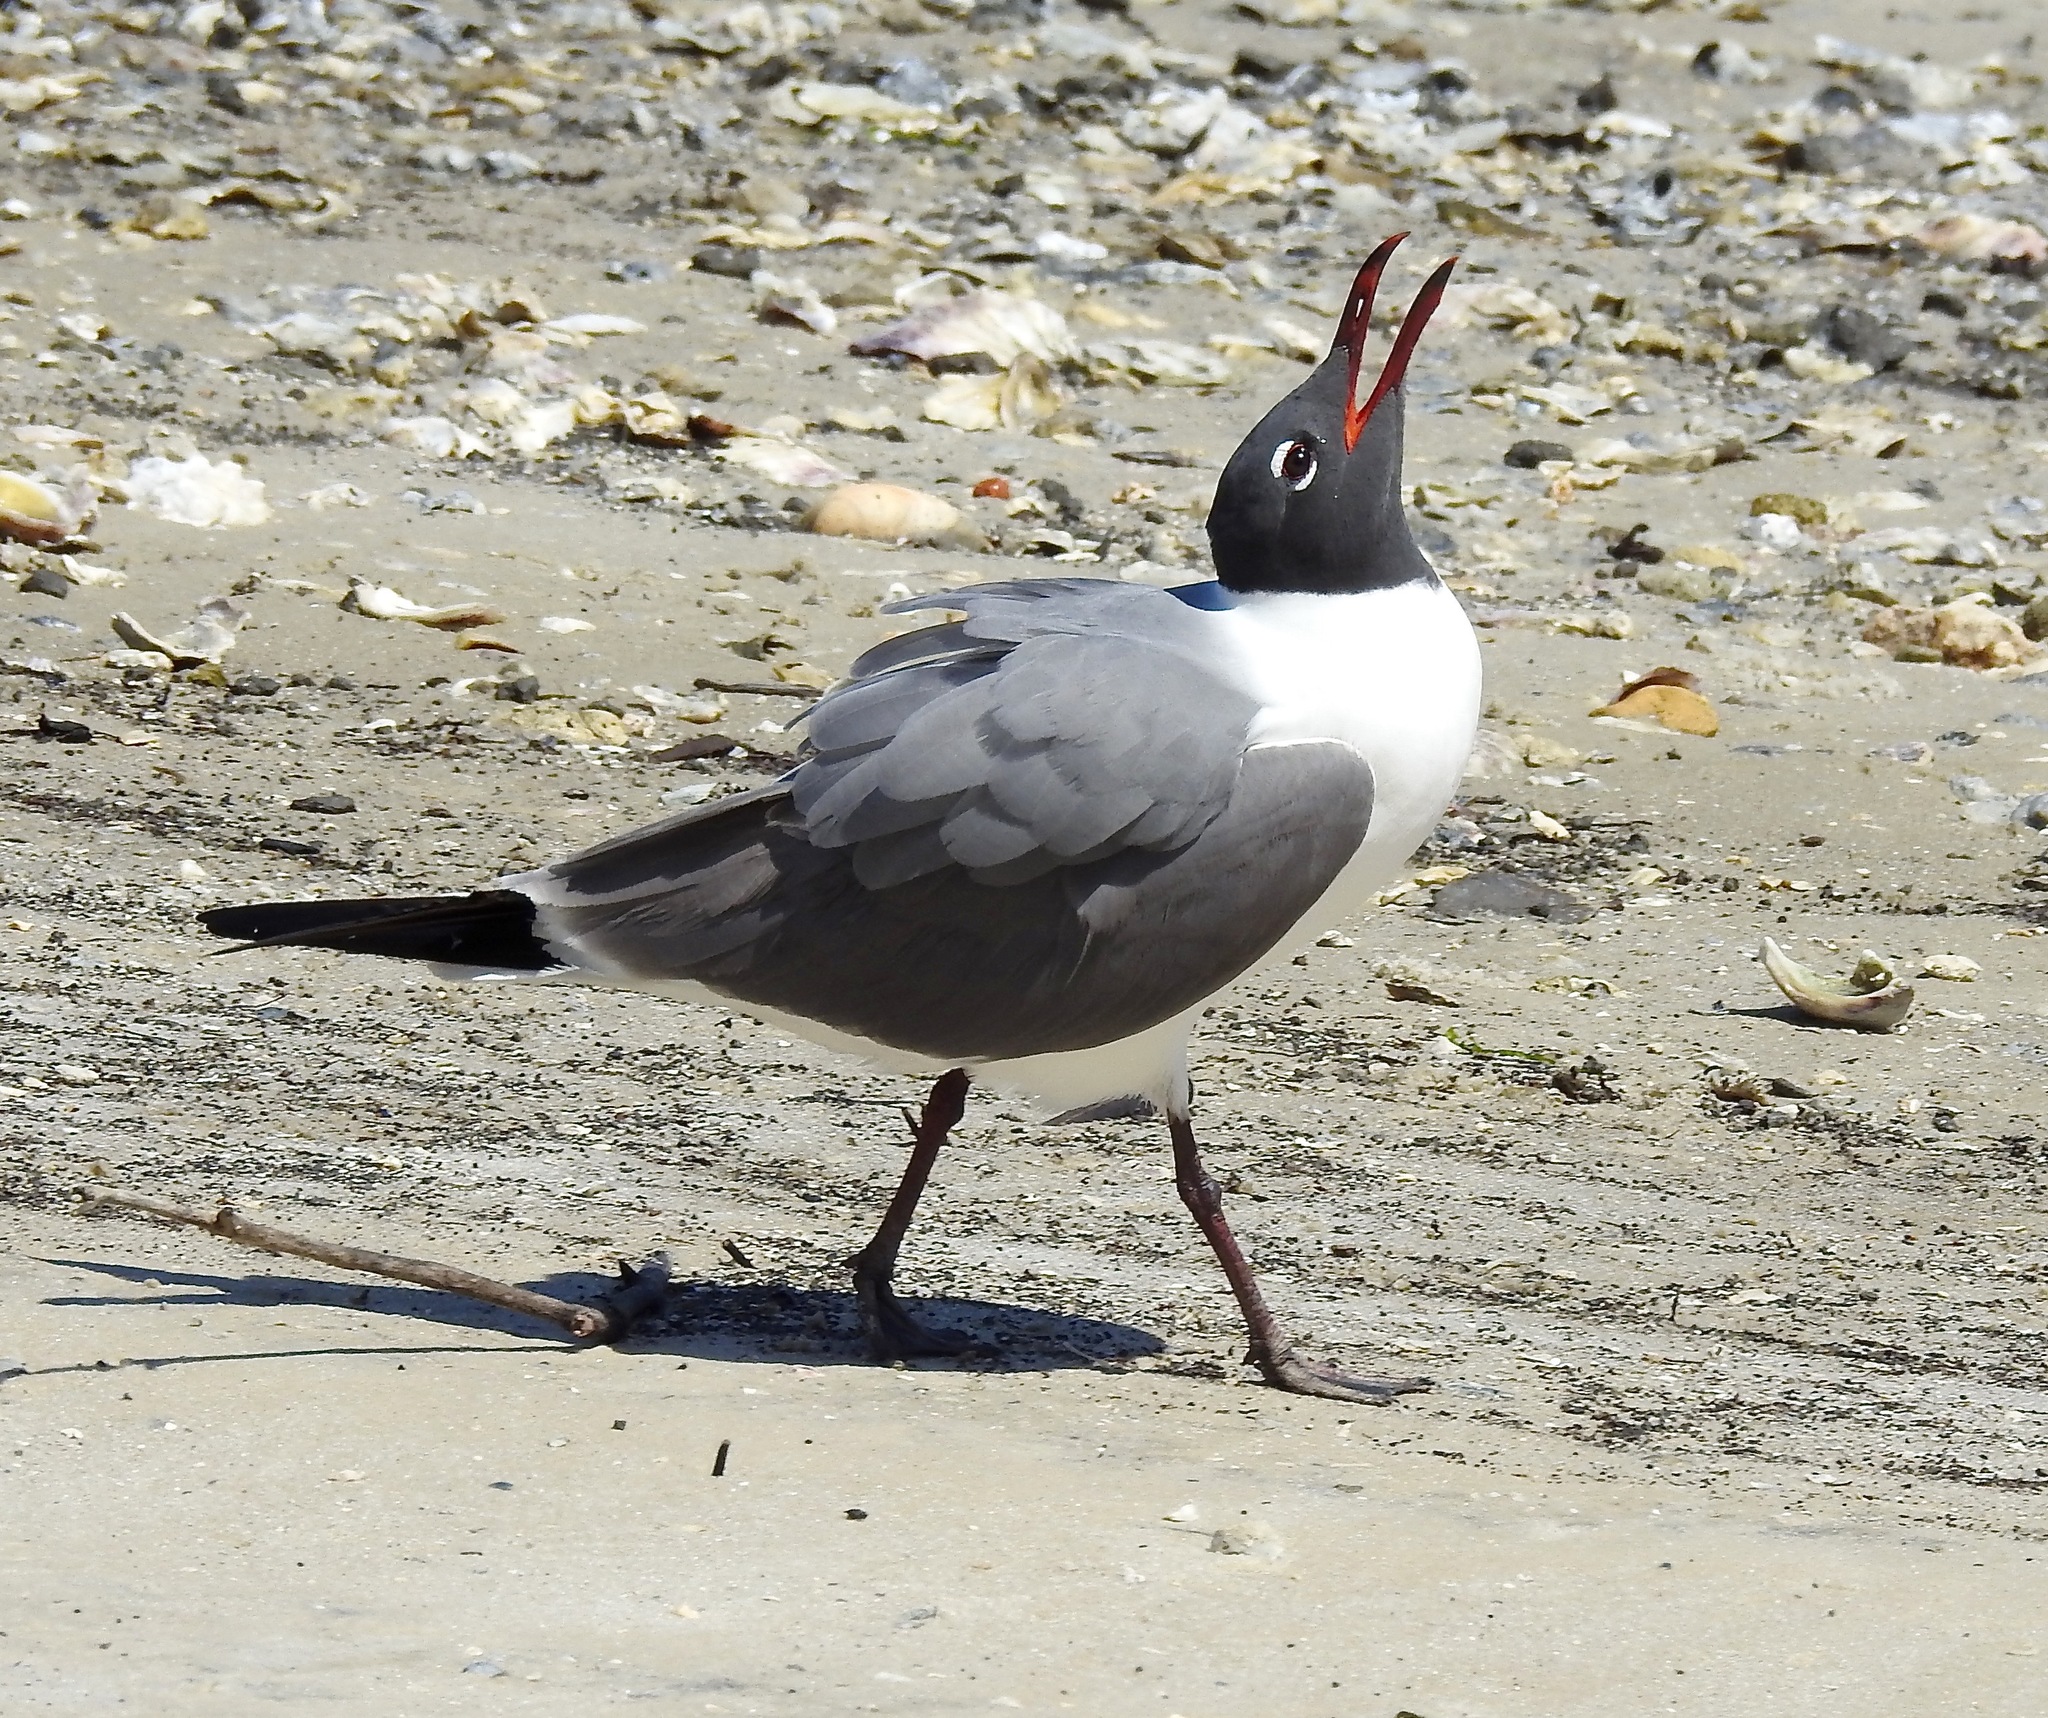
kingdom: Animalia
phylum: Chordata
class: Aves
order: Charadriiformes
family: Laridae
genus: Leucophaeus
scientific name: Leucophaeus atricilla
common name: Laughing gull
